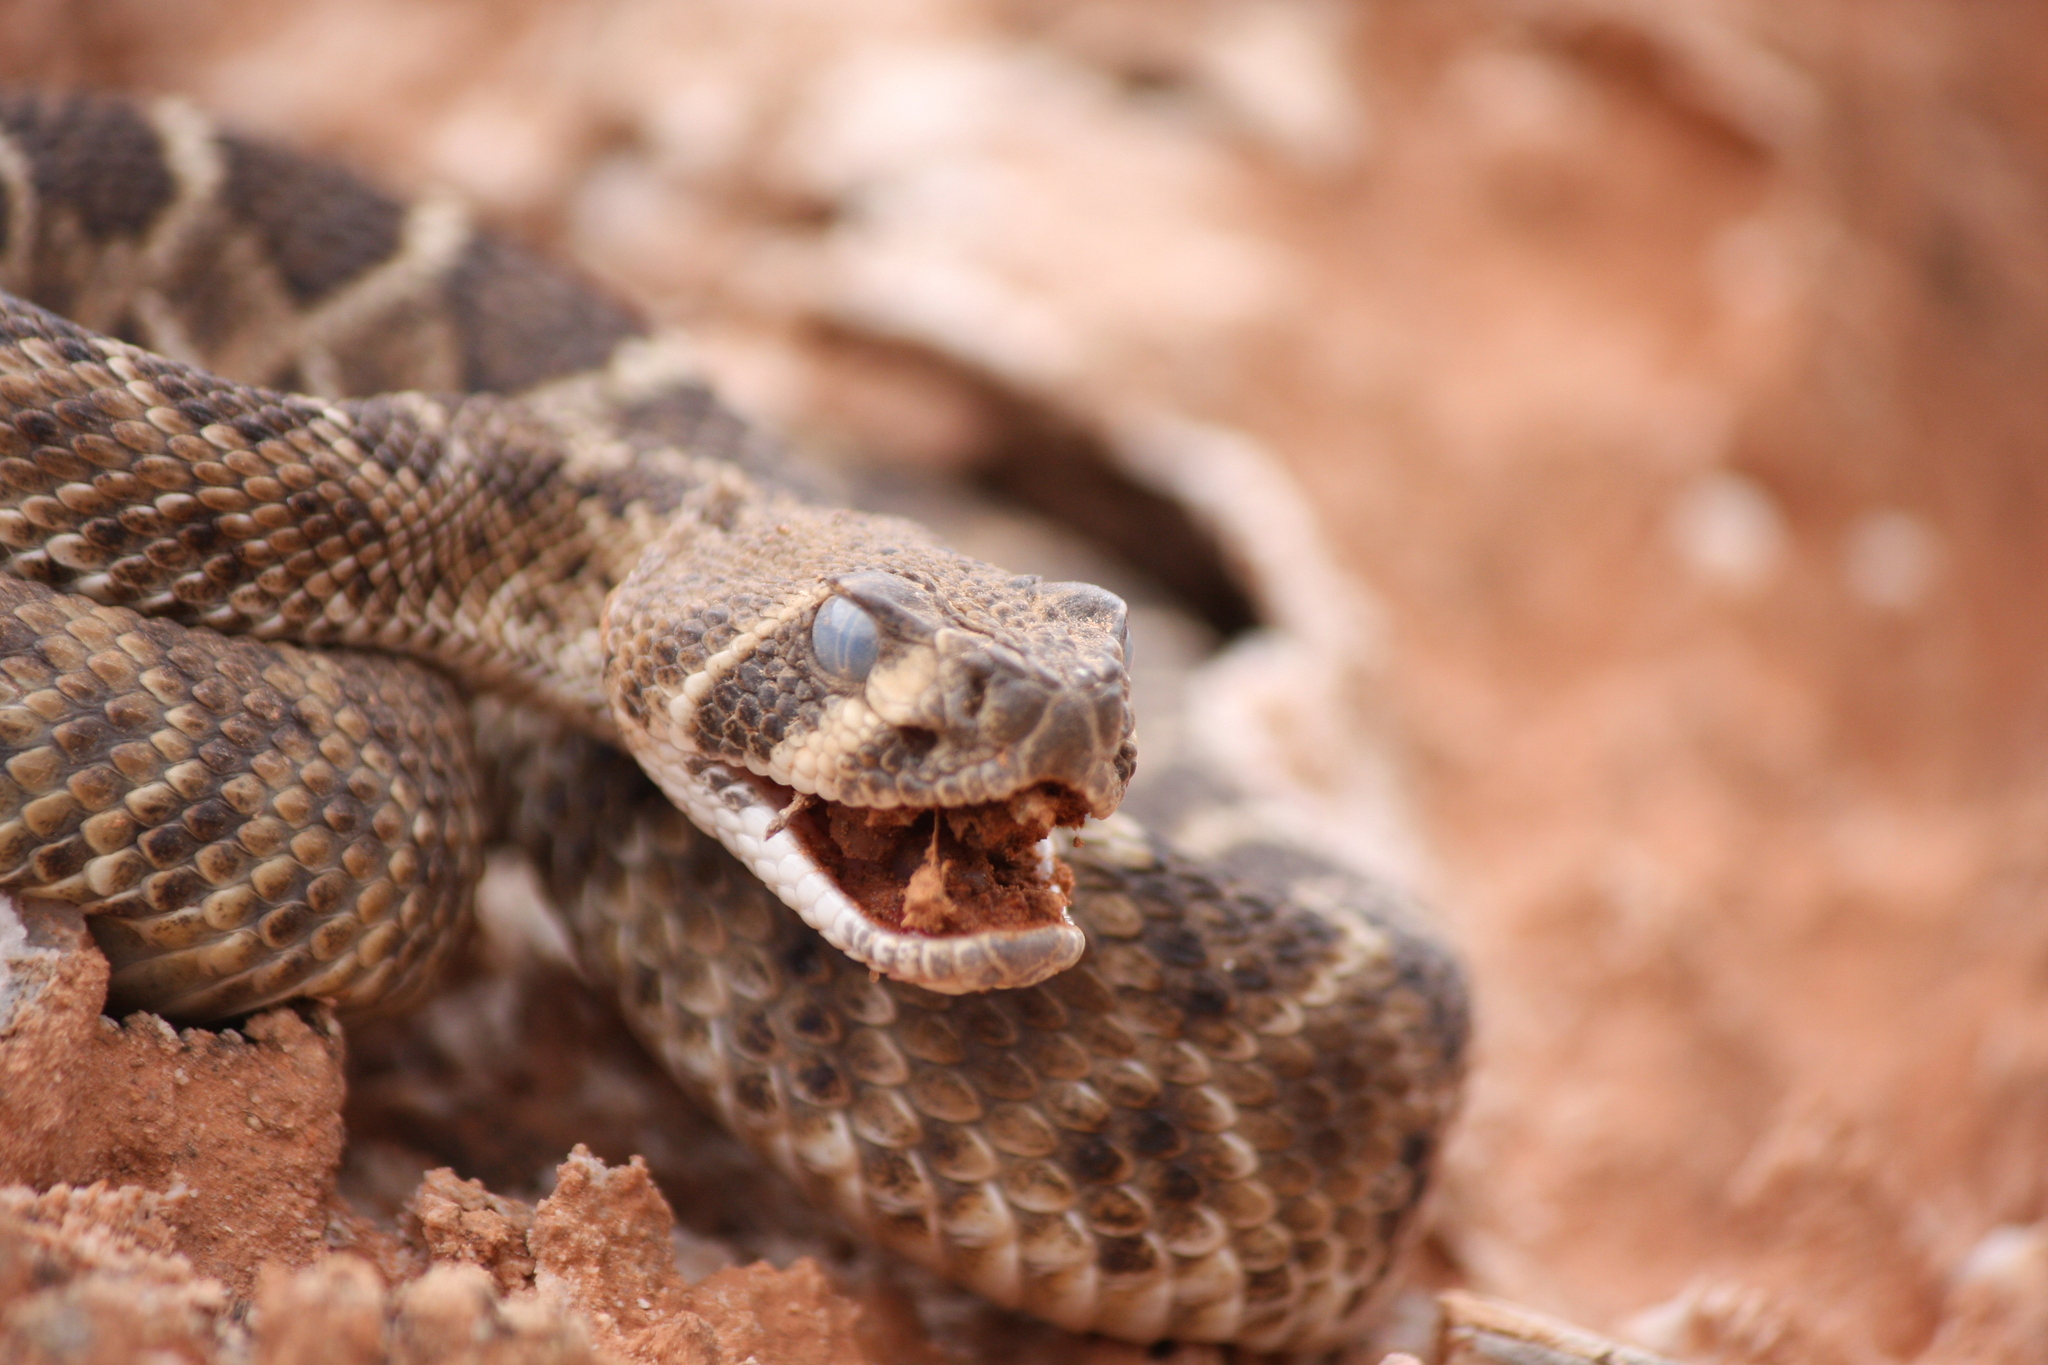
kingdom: Animalia
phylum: Chordata
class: Squamata
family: Viperidae
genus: Crotalus
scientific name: Crotalus atrox
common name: Western diamond-backed rattlesnake
